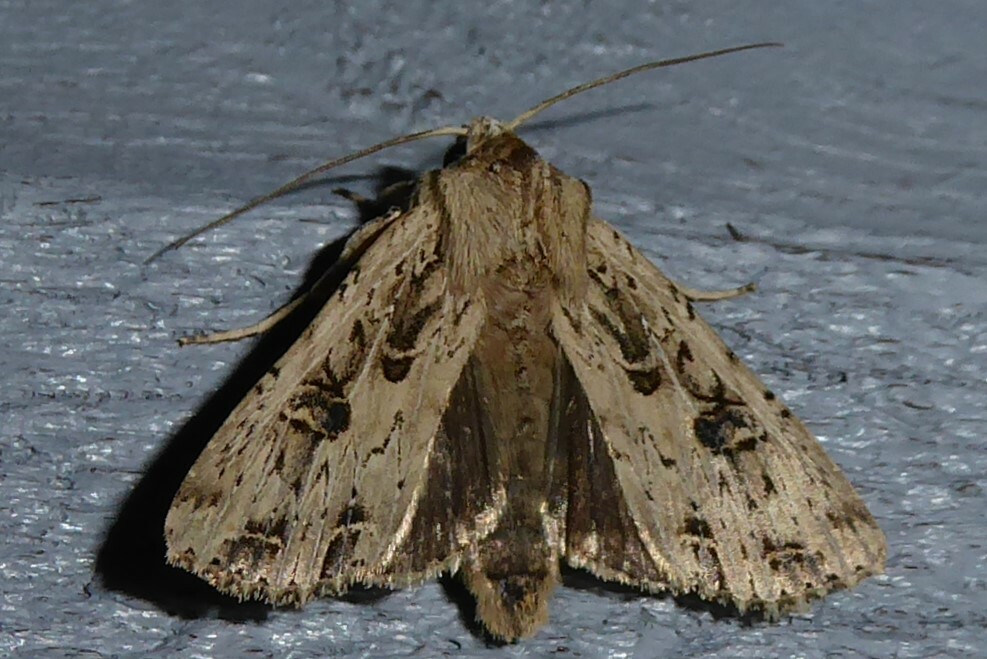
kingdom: Animalia
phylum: Arthropoda
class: Insecta
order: Lepidoptera
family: Noctuidae
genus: Ichneutica
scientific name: Ichneutica lignana
